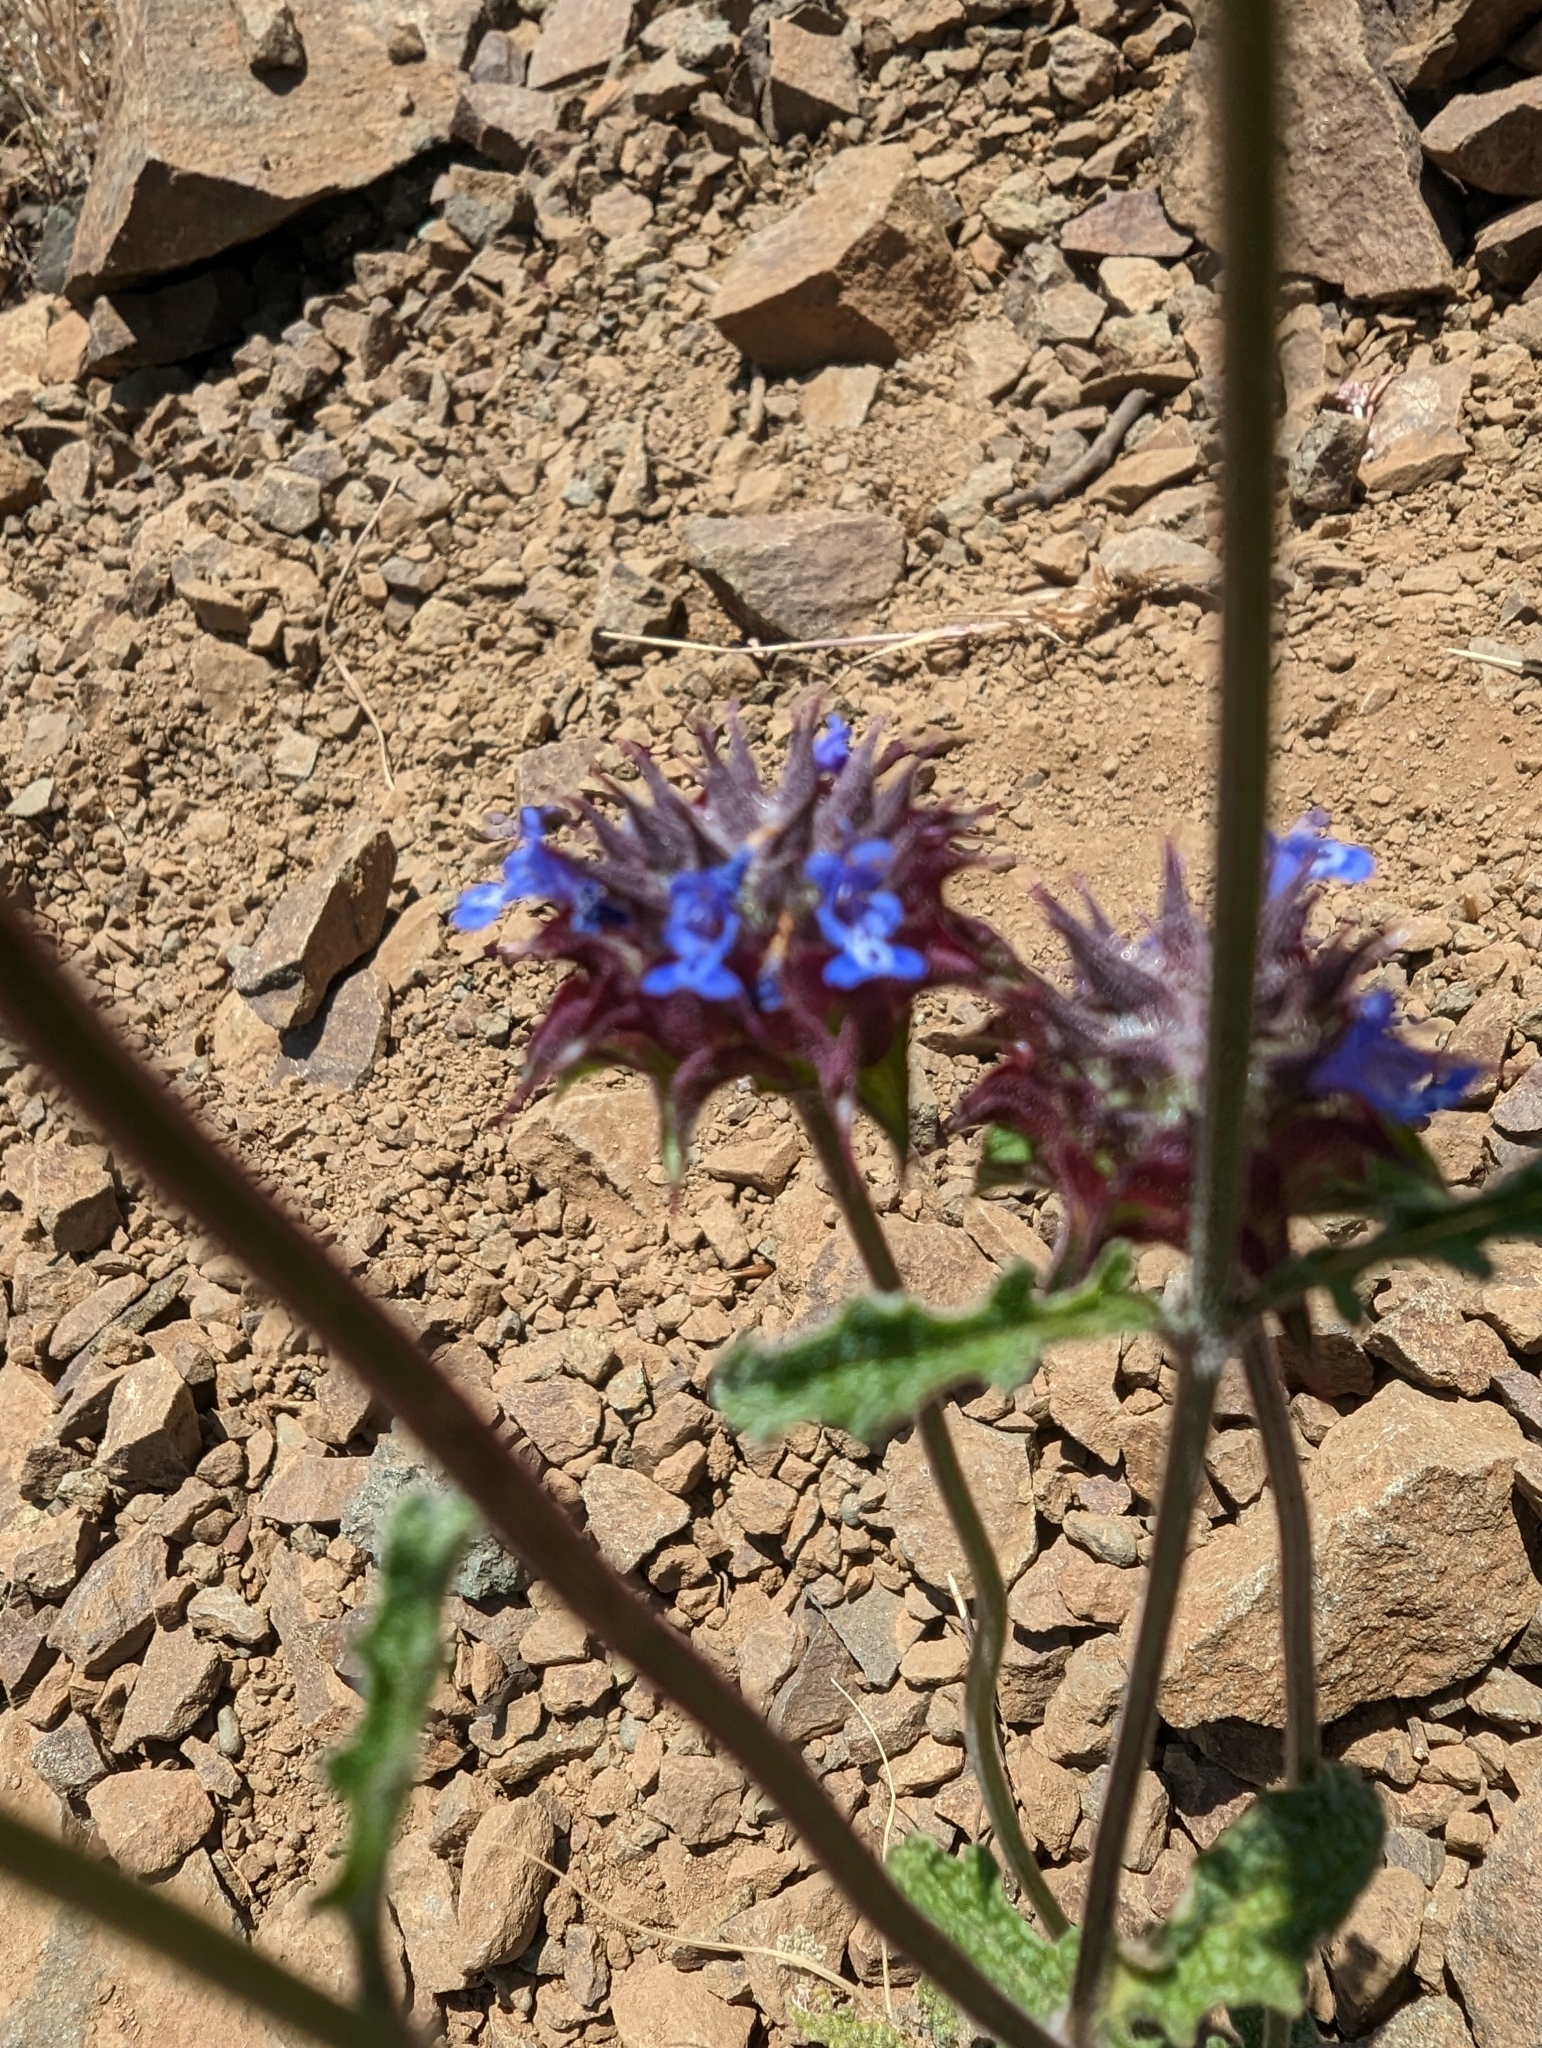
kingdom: Plantae
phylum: Tracheophyta
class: Magnoliopsida
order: Lamiales
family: Lamiaceae
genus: Salvia
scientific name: Salvia columbariae
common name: Chia
